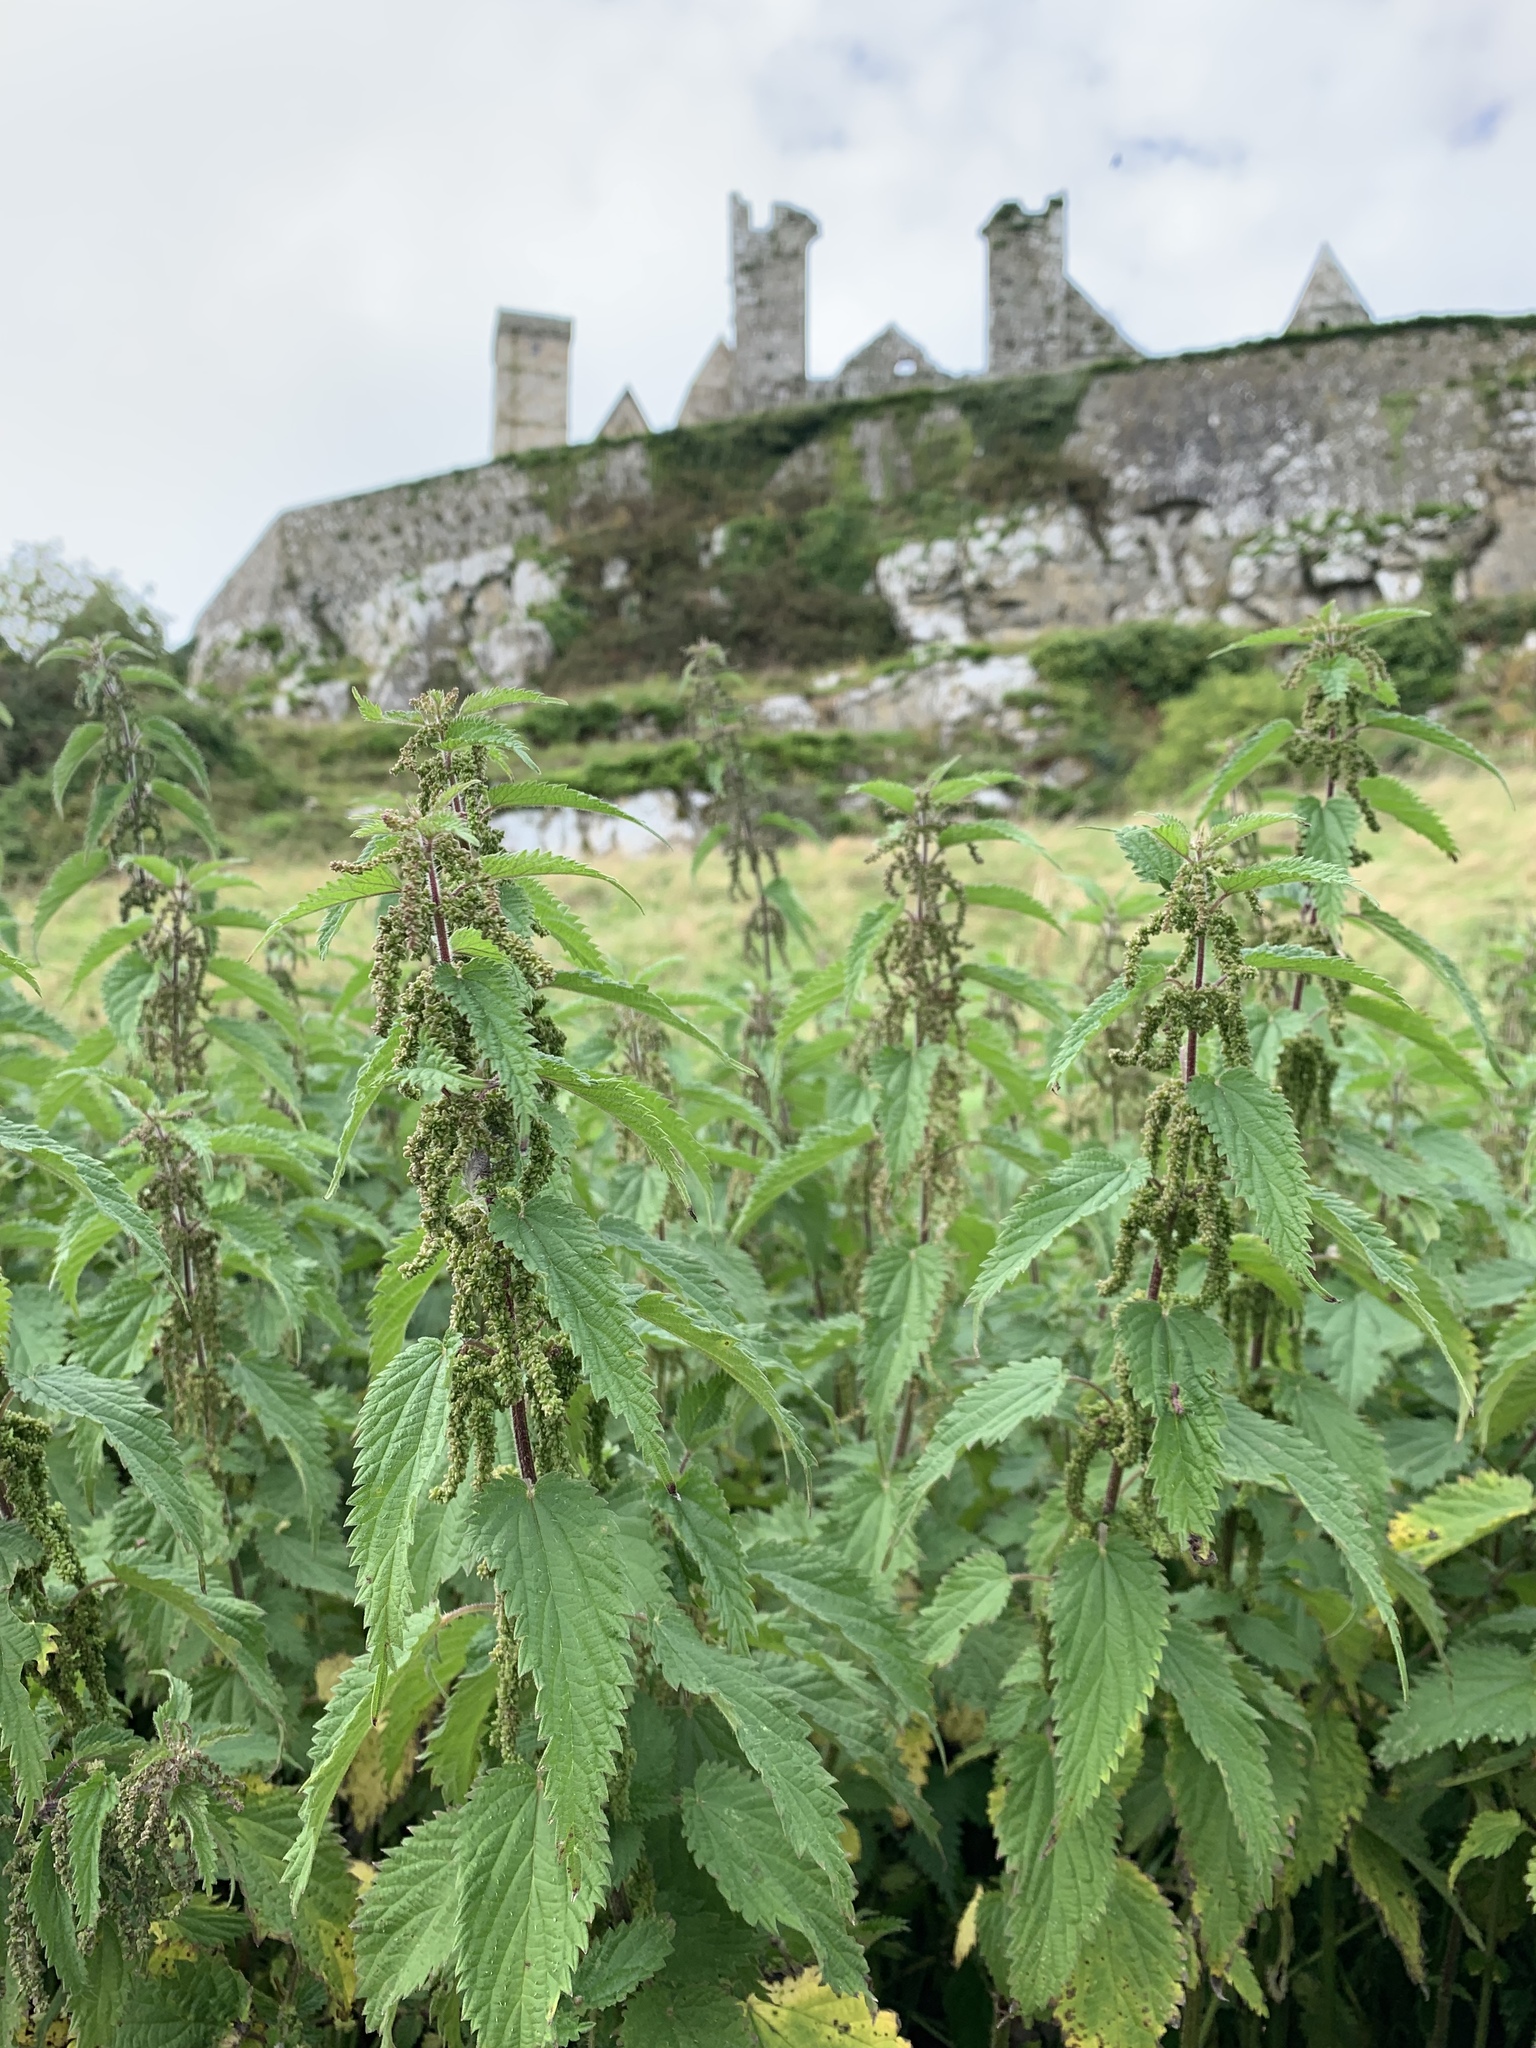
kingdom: Plantae
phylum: Tracheophyta
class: Magnoliopsida
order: Rosales
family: Urticaceae
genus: Urtica
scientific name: Urtica dioica
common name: Common nettle
